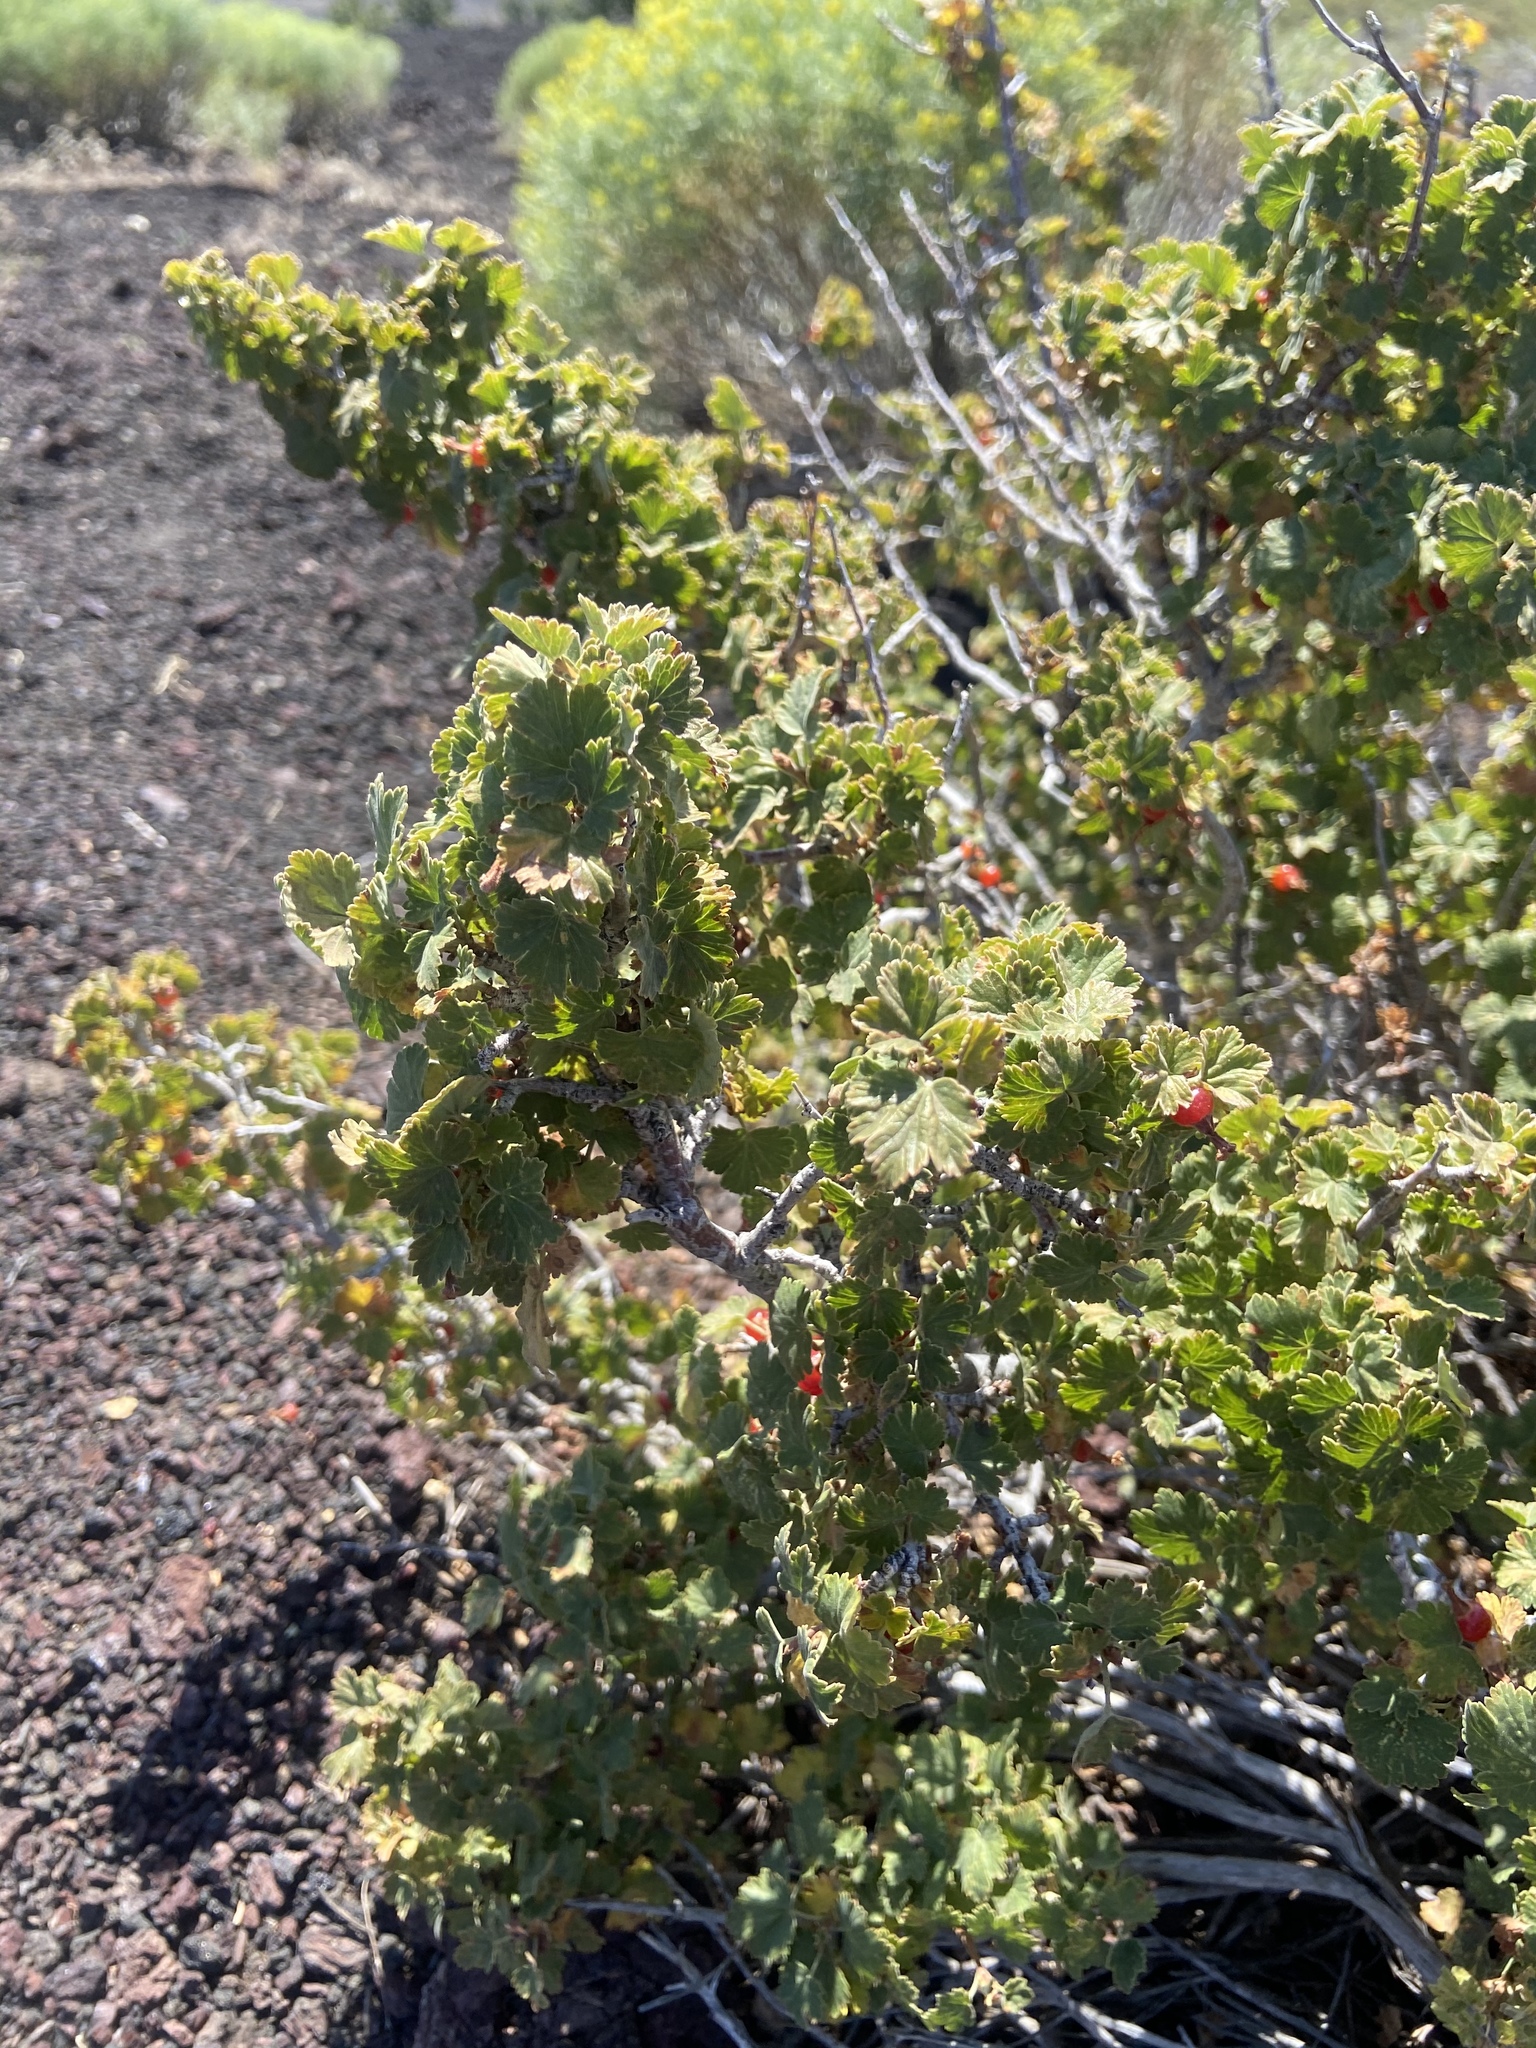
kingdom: Plantae
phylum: Tracheophyta
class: Magnoliopsida
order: Saxifragales
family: Grossulariaceae
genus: Ribes
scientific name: Ribes cereum
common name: Wax currant
